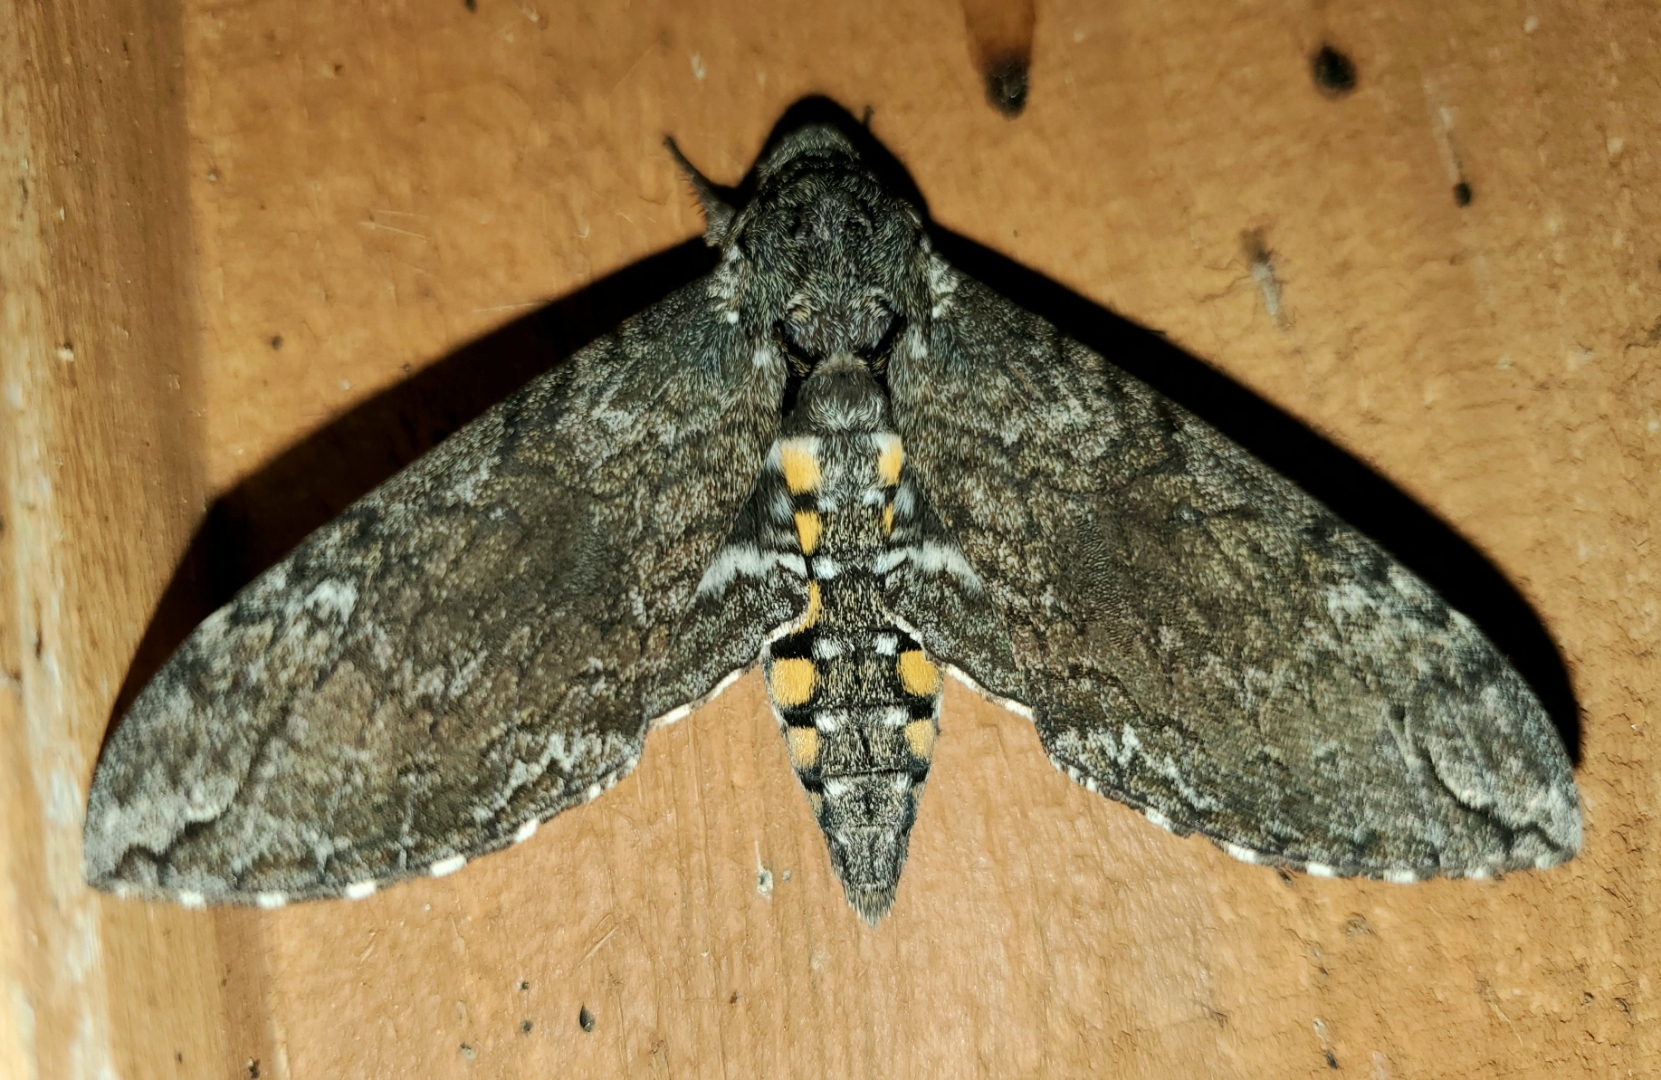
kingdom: Animalia
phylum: Arthropoda
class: Insecta
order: Lepidoptera
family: Sphingidae
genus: Manduca
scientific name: Manduca sexta
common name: Carolina sphinx
